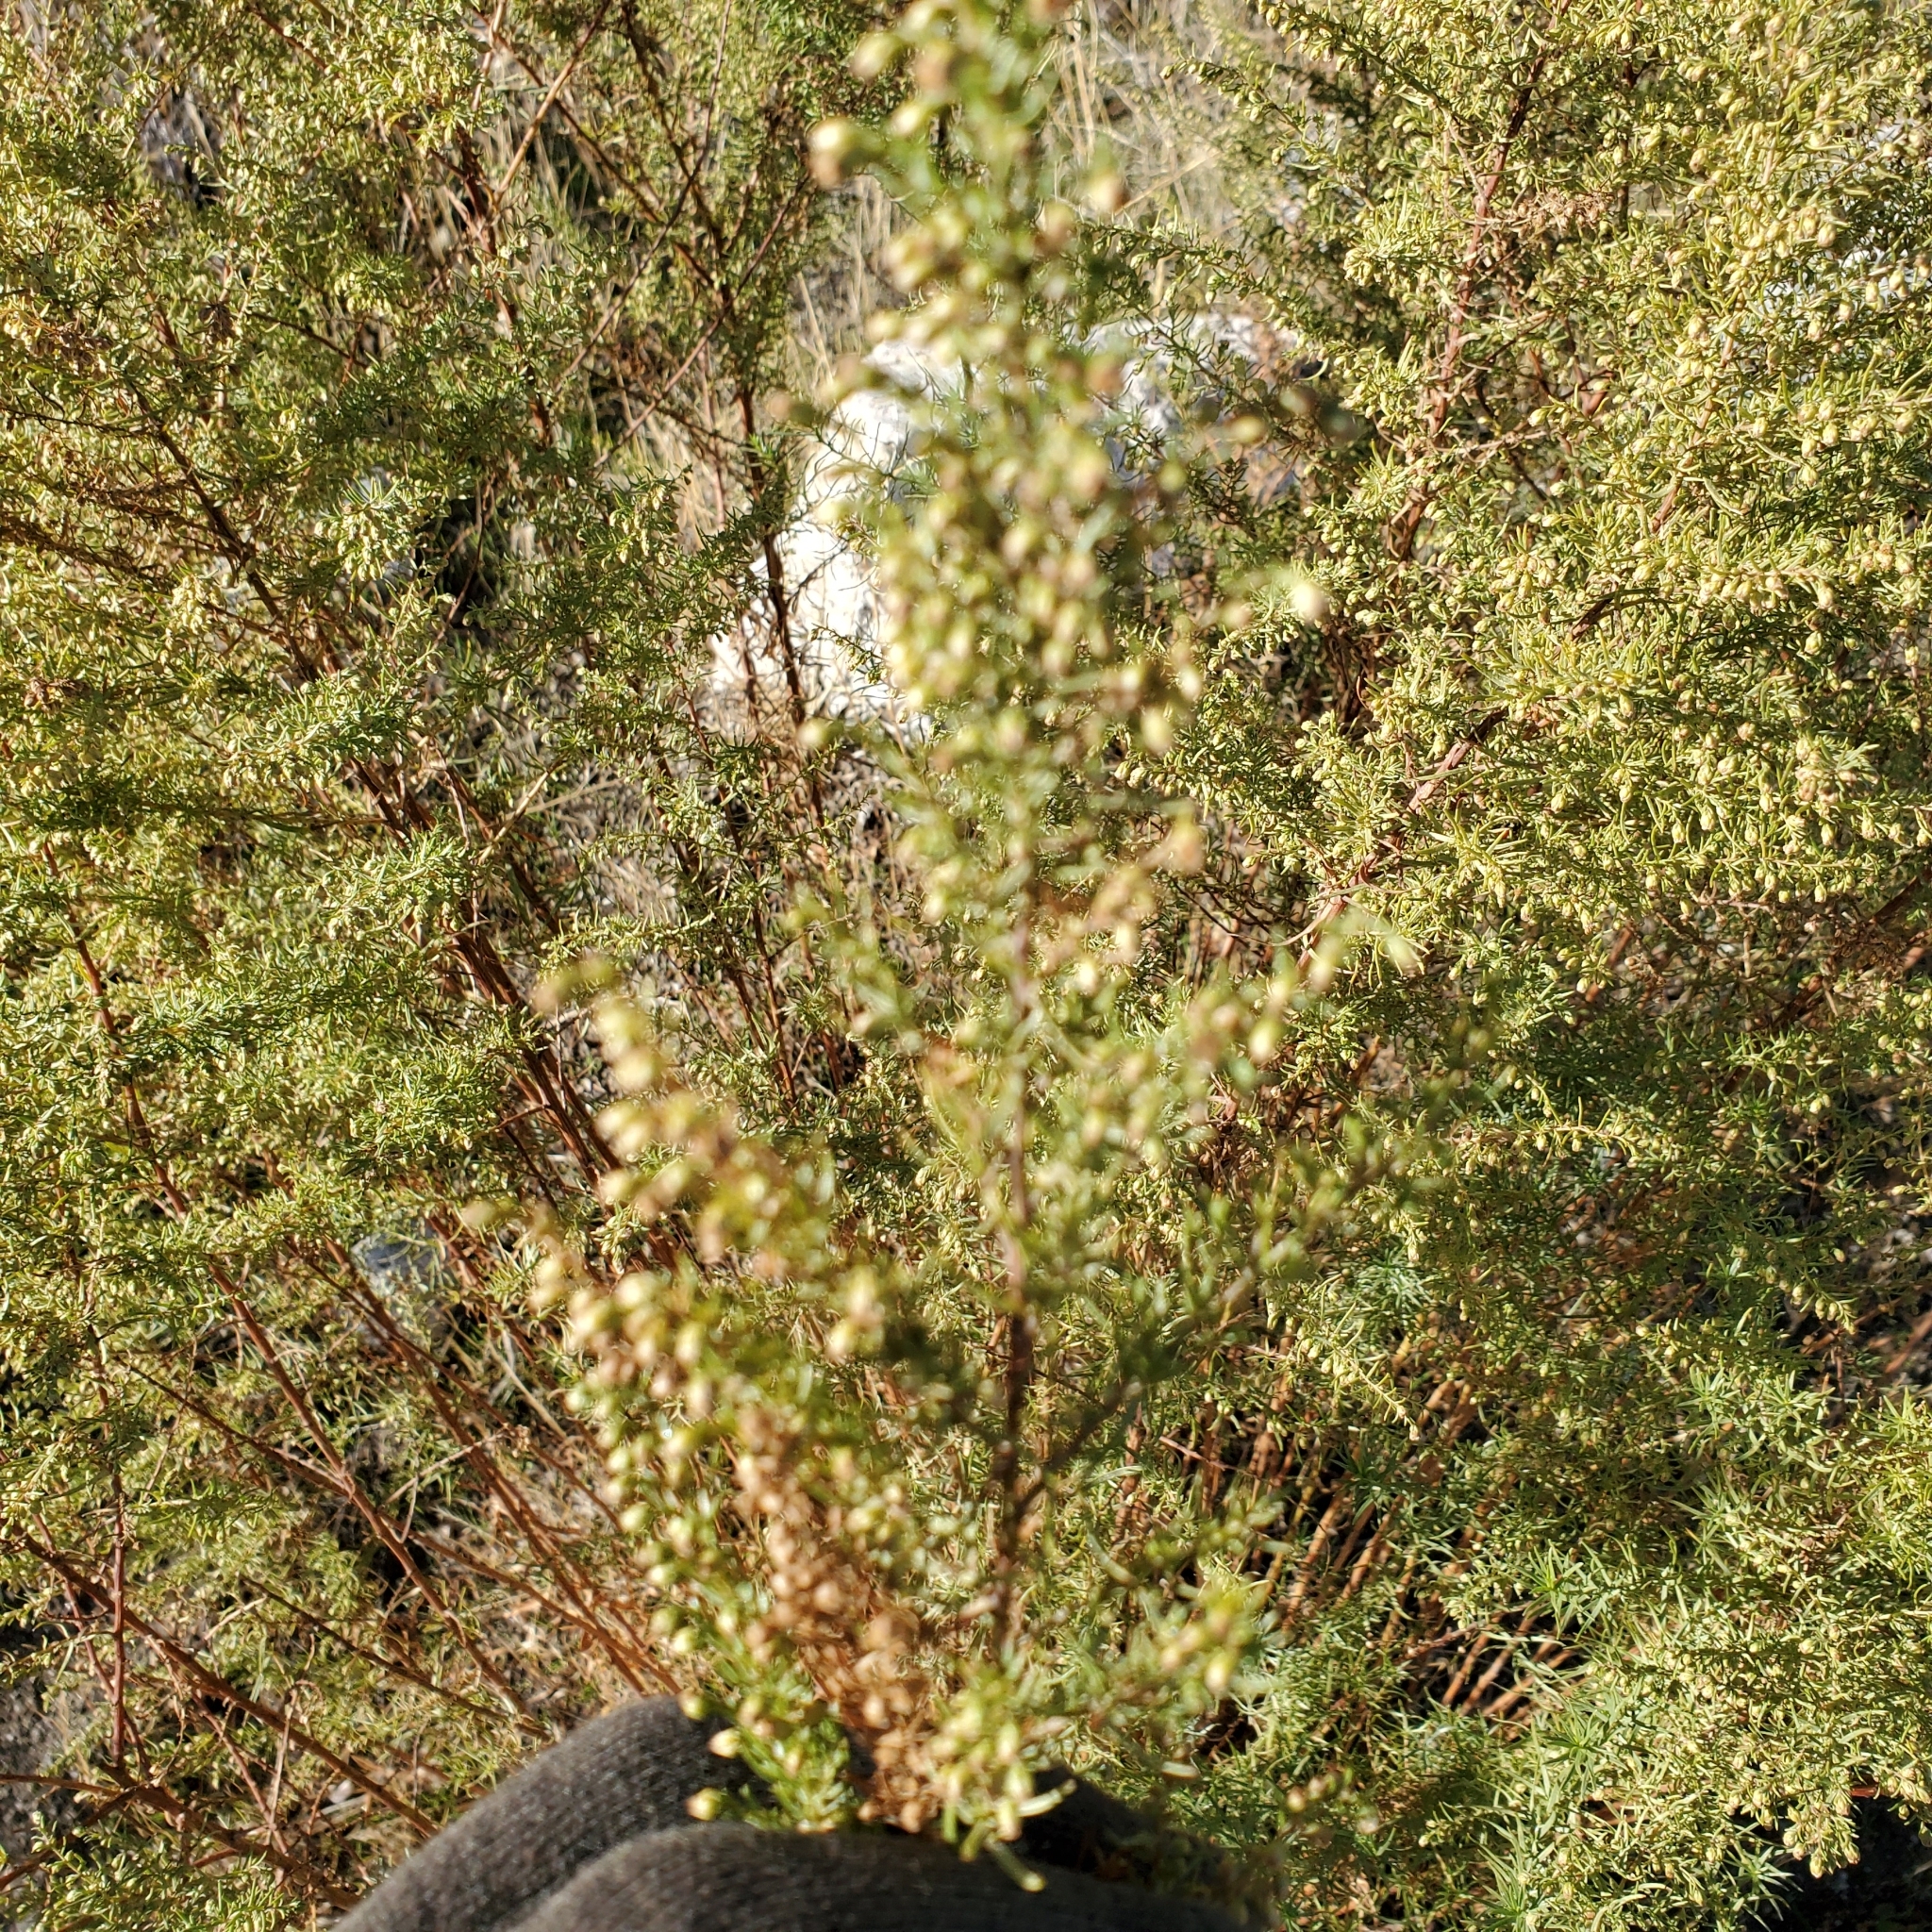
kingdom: Plantae
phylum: Tracheophyta
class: Magnoliopsida
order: Asterales
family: Asteraceae
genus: Artemisia
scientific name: Artemisia dracunculus
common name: Tarragon
